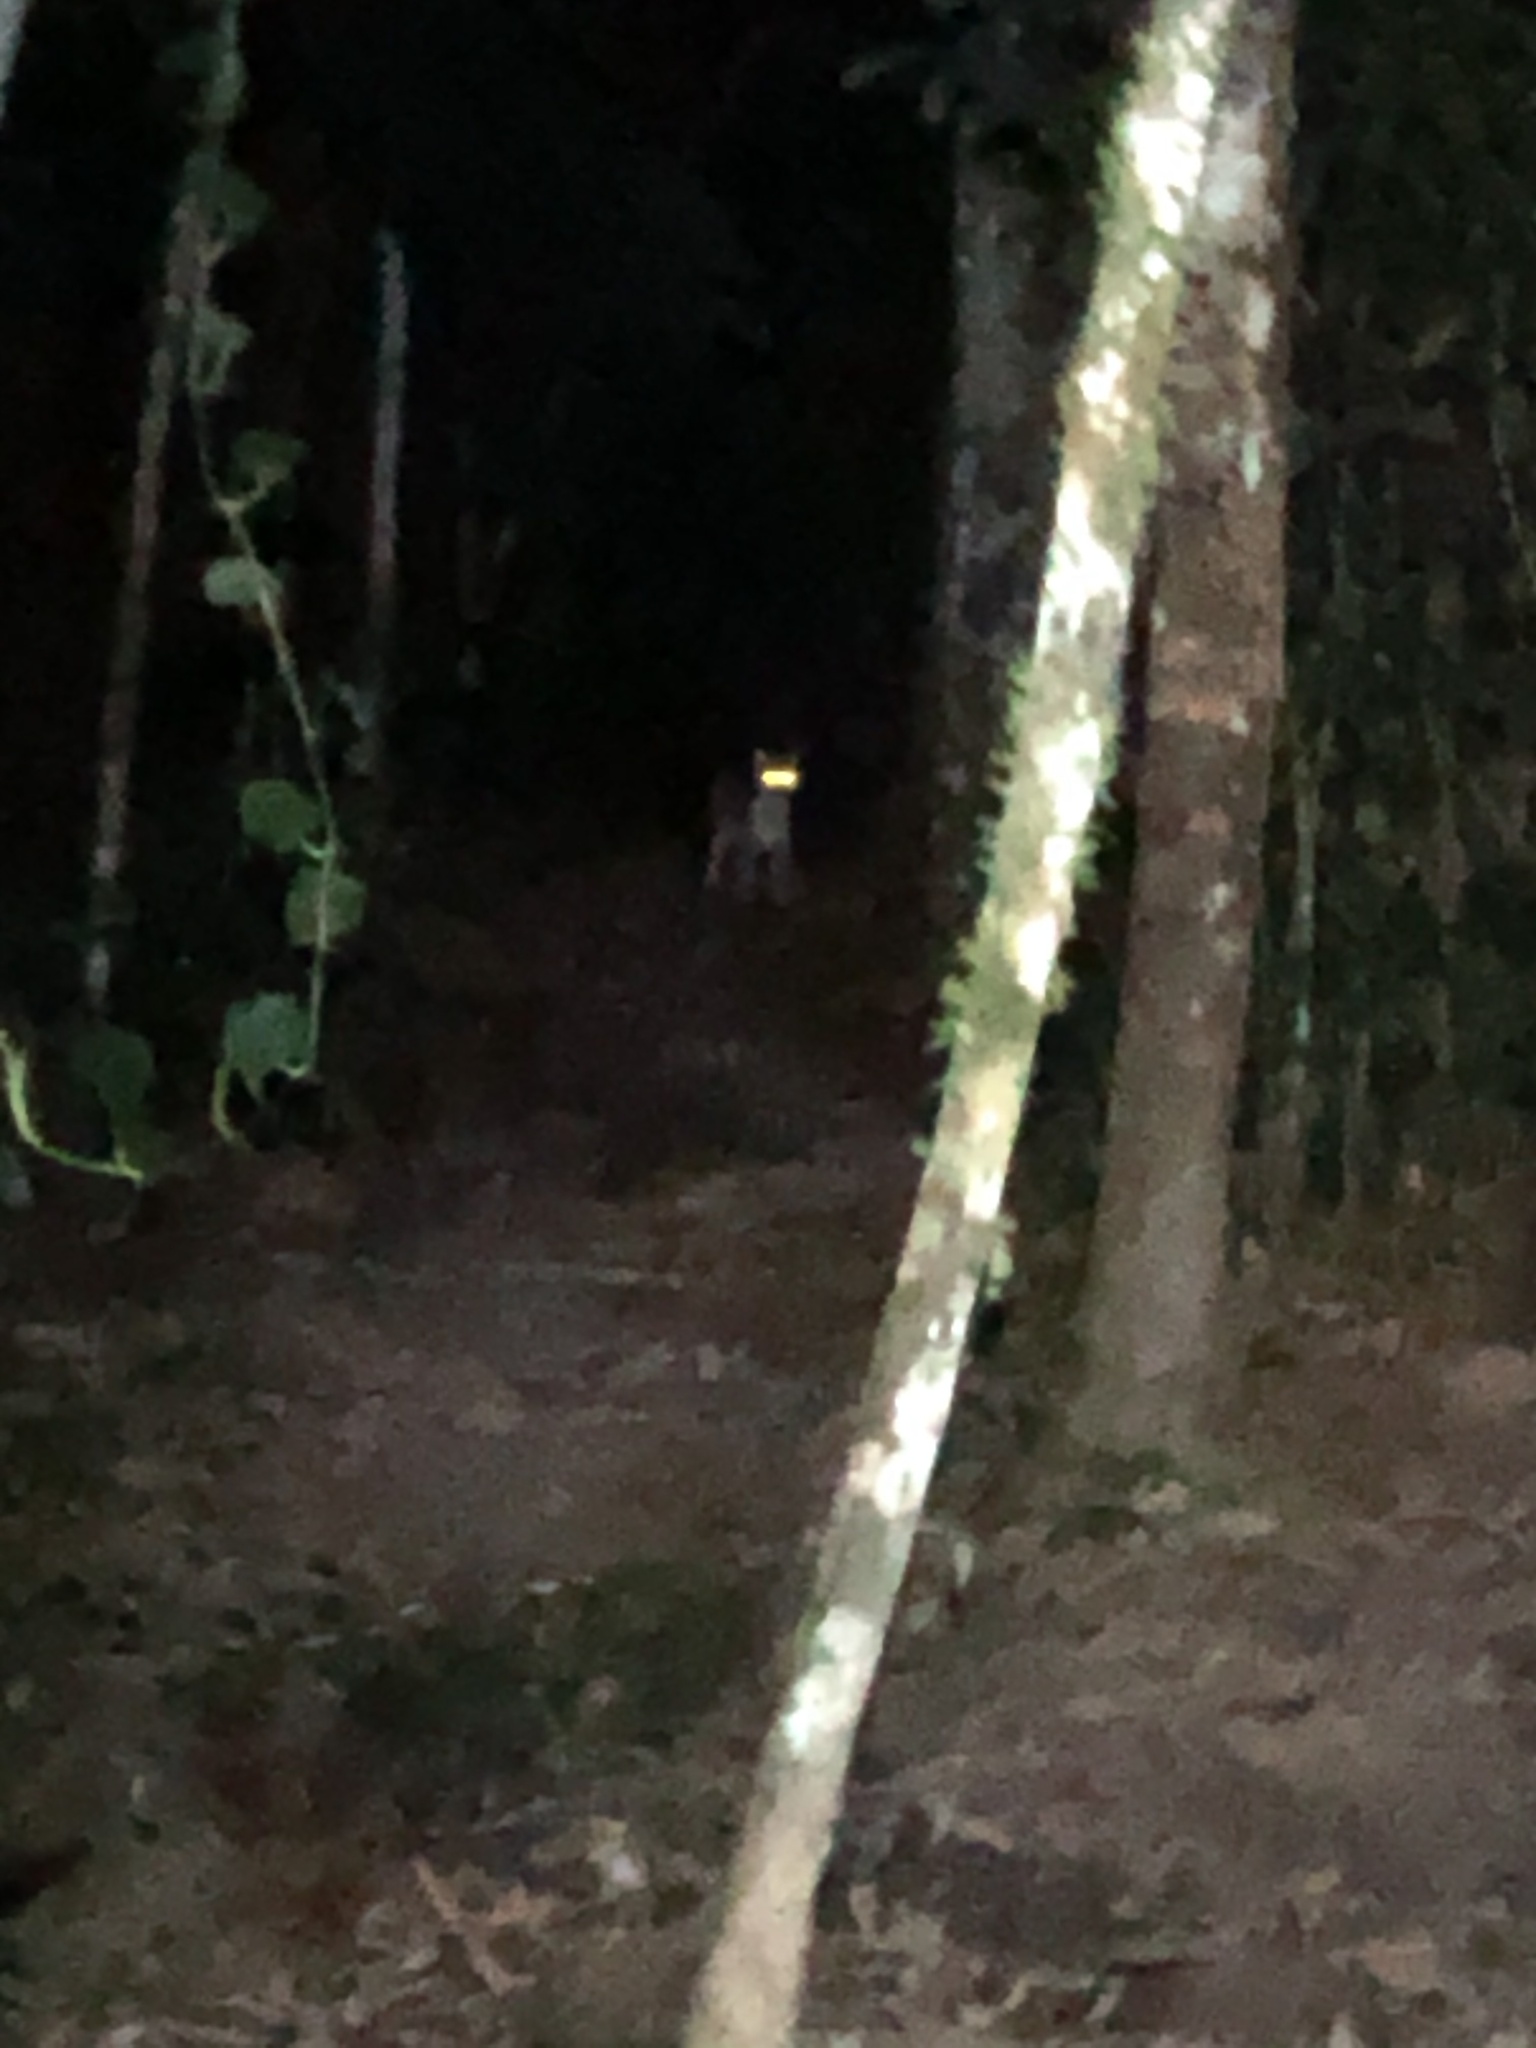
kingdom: Animalia
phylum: Chordata
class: Mammalia
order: Carnivora
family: Felidae
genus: Leopardus
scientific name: Leopardus pardalis
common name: Ocelot
